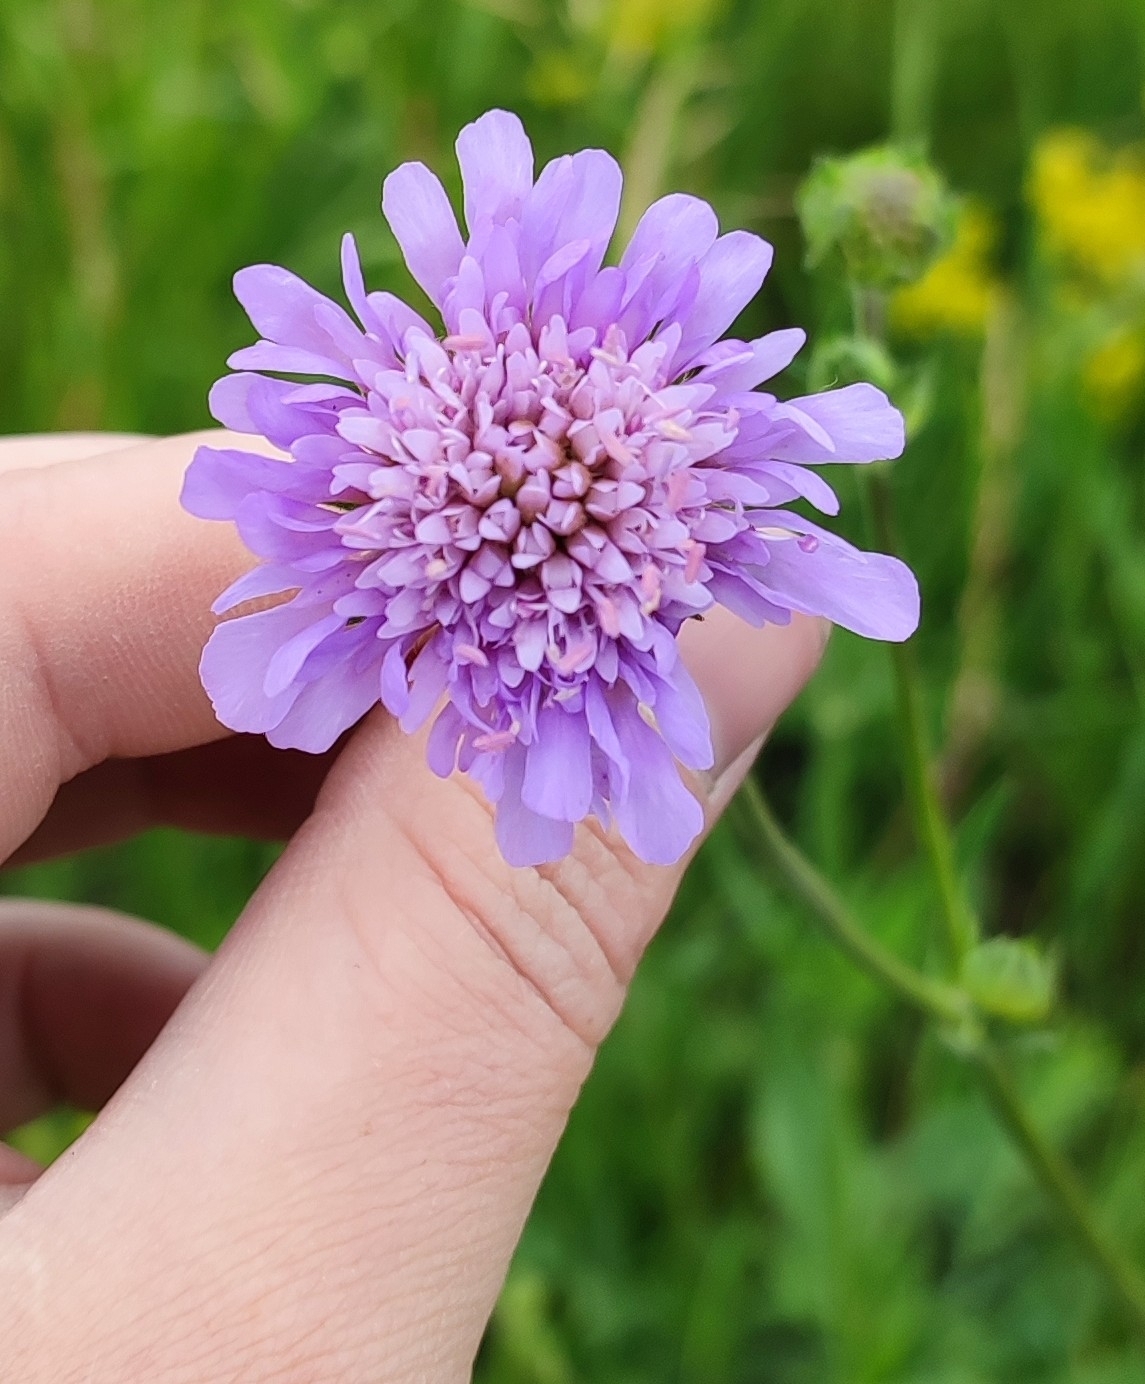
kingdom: Plantae
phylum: Tracheophyta
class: Magnoliopsida
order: Dipsacales
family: Caprifoliaceae
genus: Knautia
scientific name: Knautia arvensis
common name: Field scabiosa
